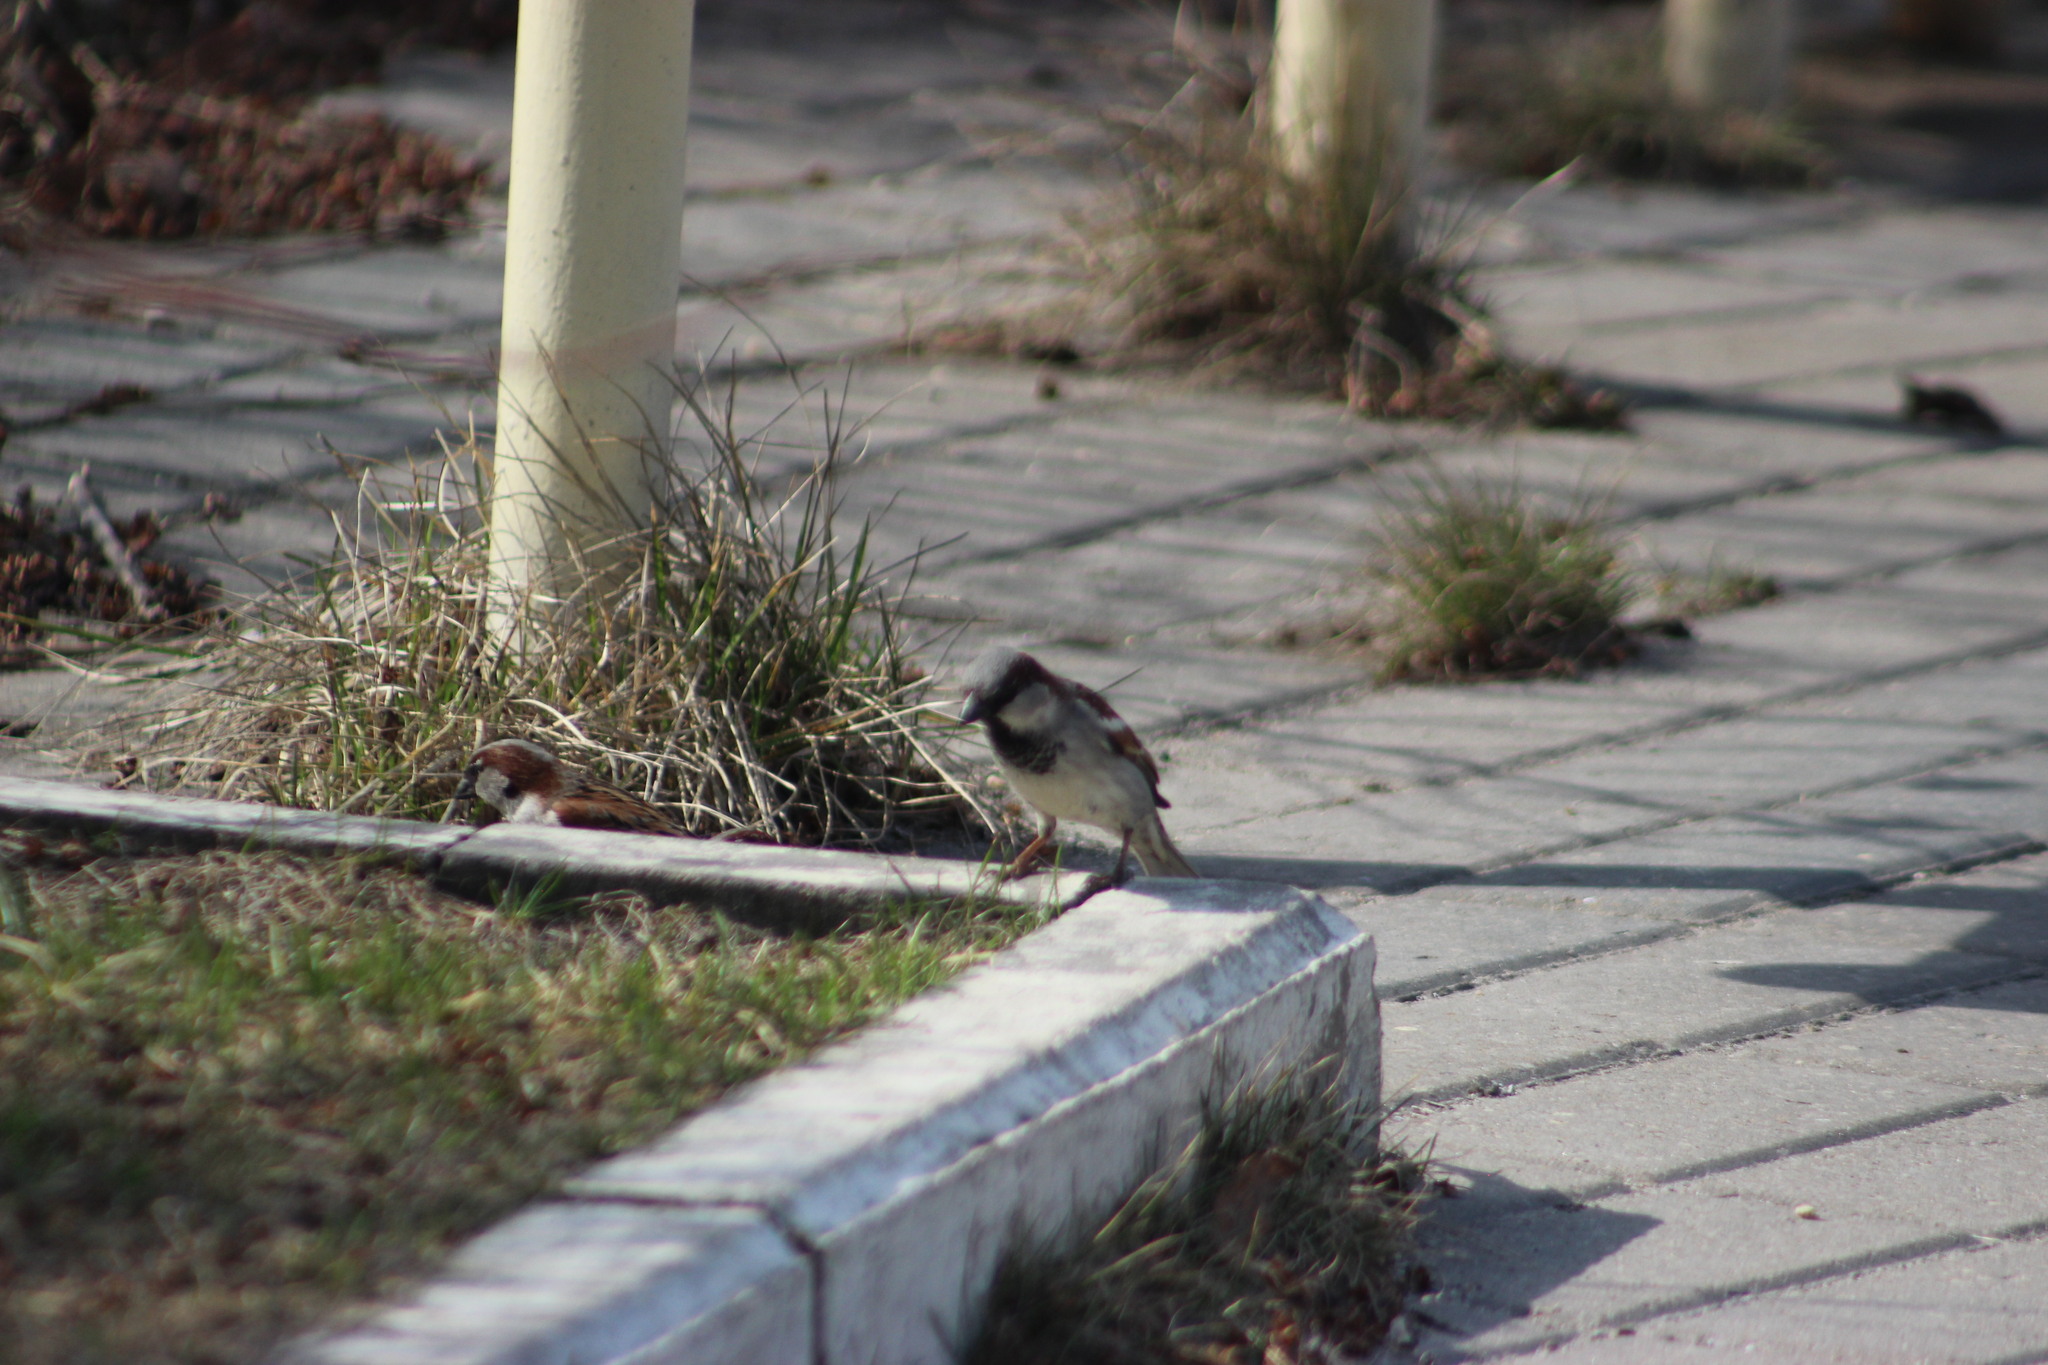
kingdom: Animalia
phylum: Chordata
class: Aves
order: Passeriformes
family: Passeridae
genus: Passer
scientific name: Passer domesticus
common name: House sparrow
